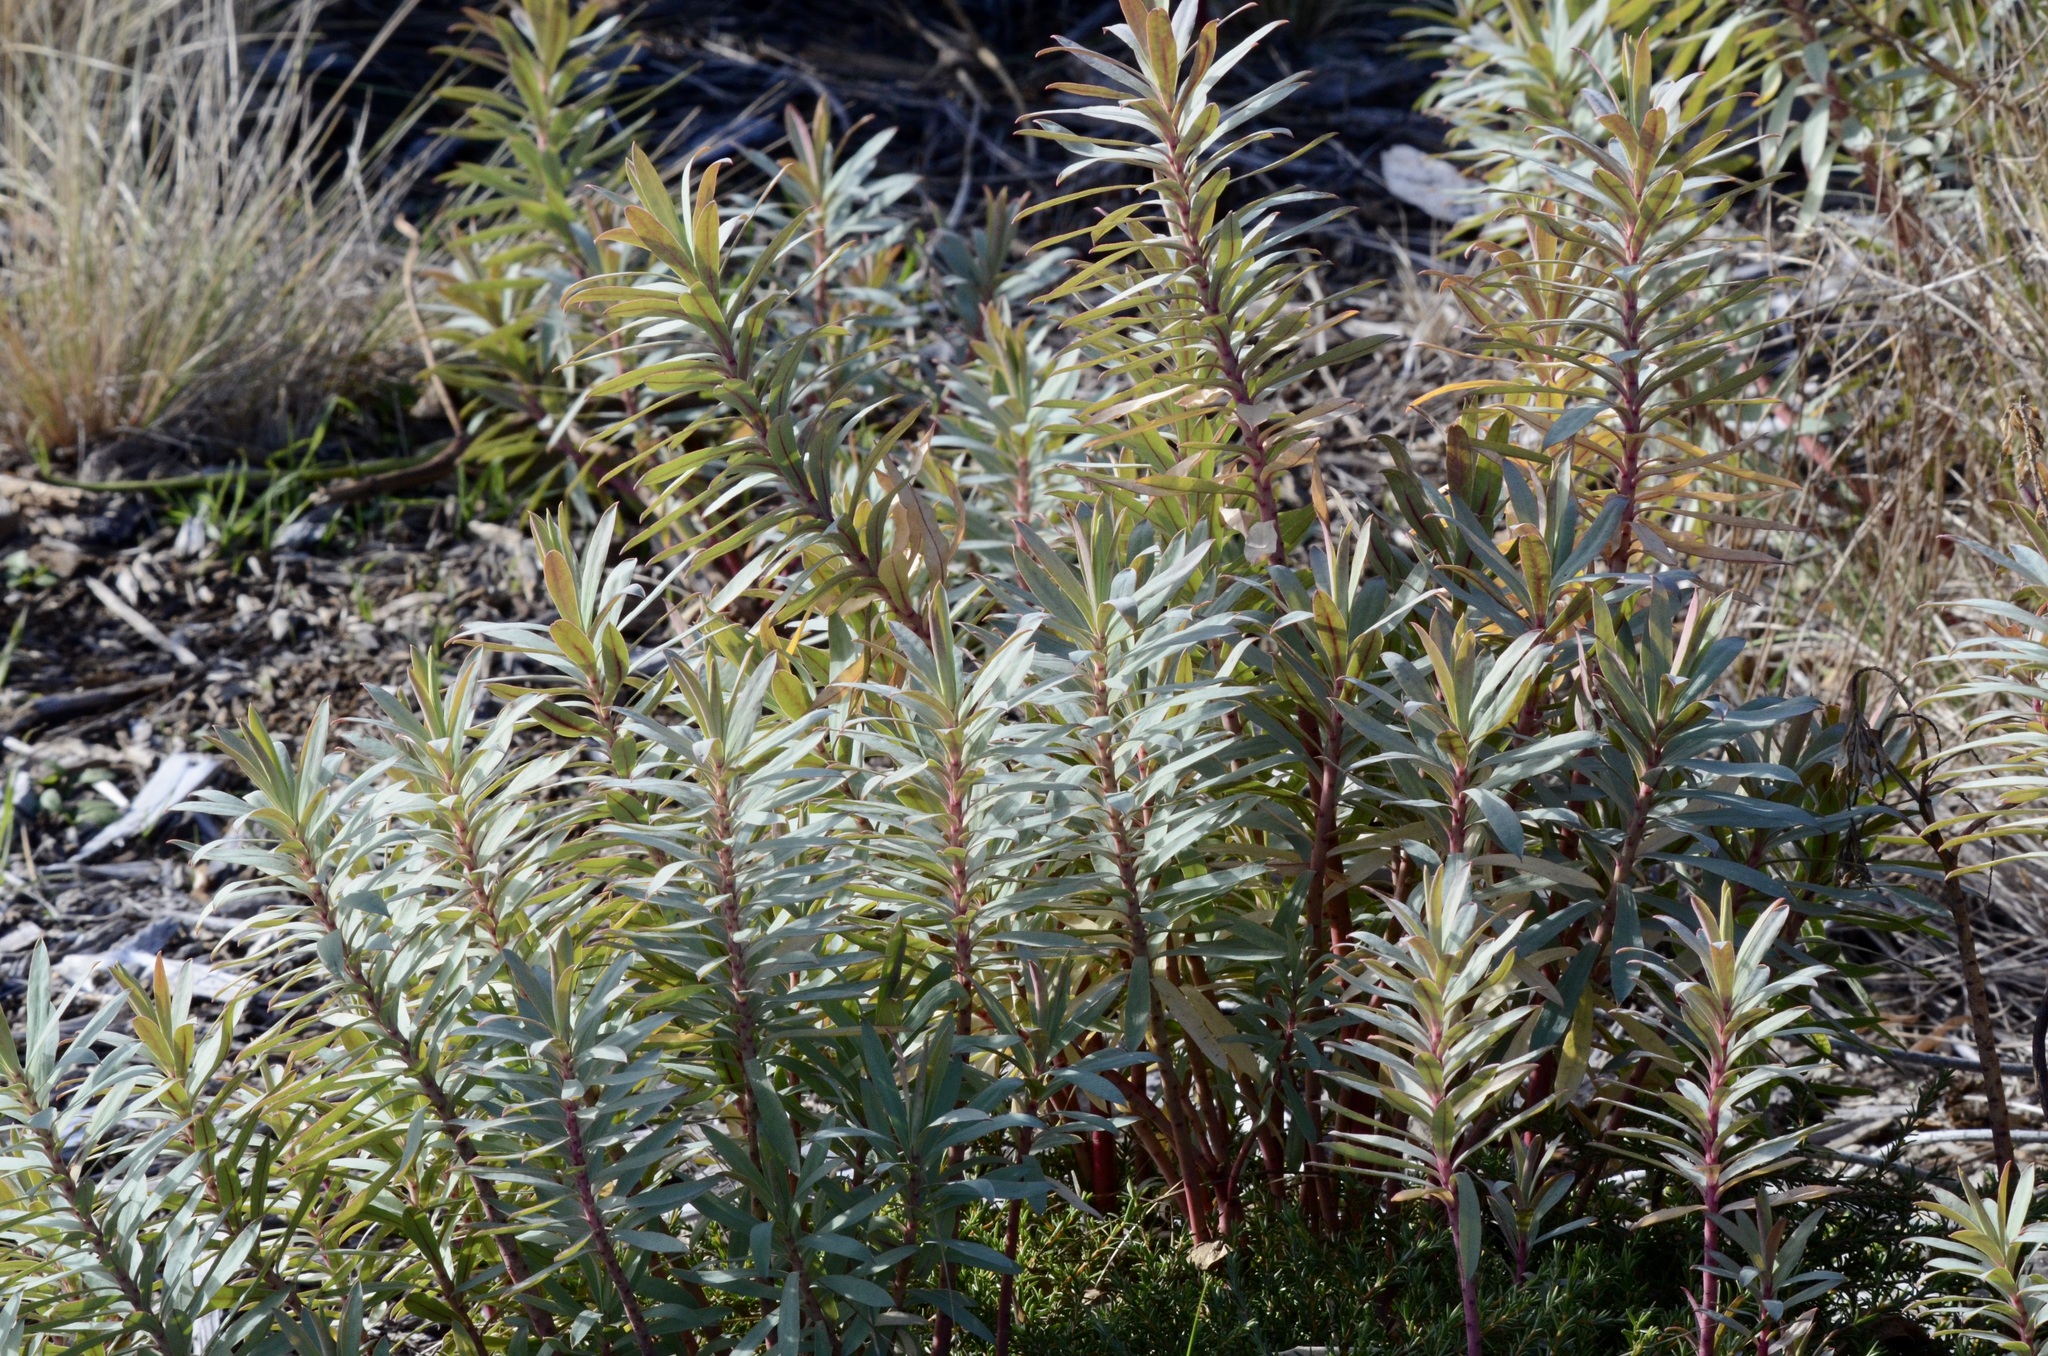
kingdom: Plantae
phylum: Tracheophyta
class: Magnoliopsida
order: Malpighiales
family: Euphorbiaceae
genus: Euphorbia
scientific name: Euphorbia glauca
